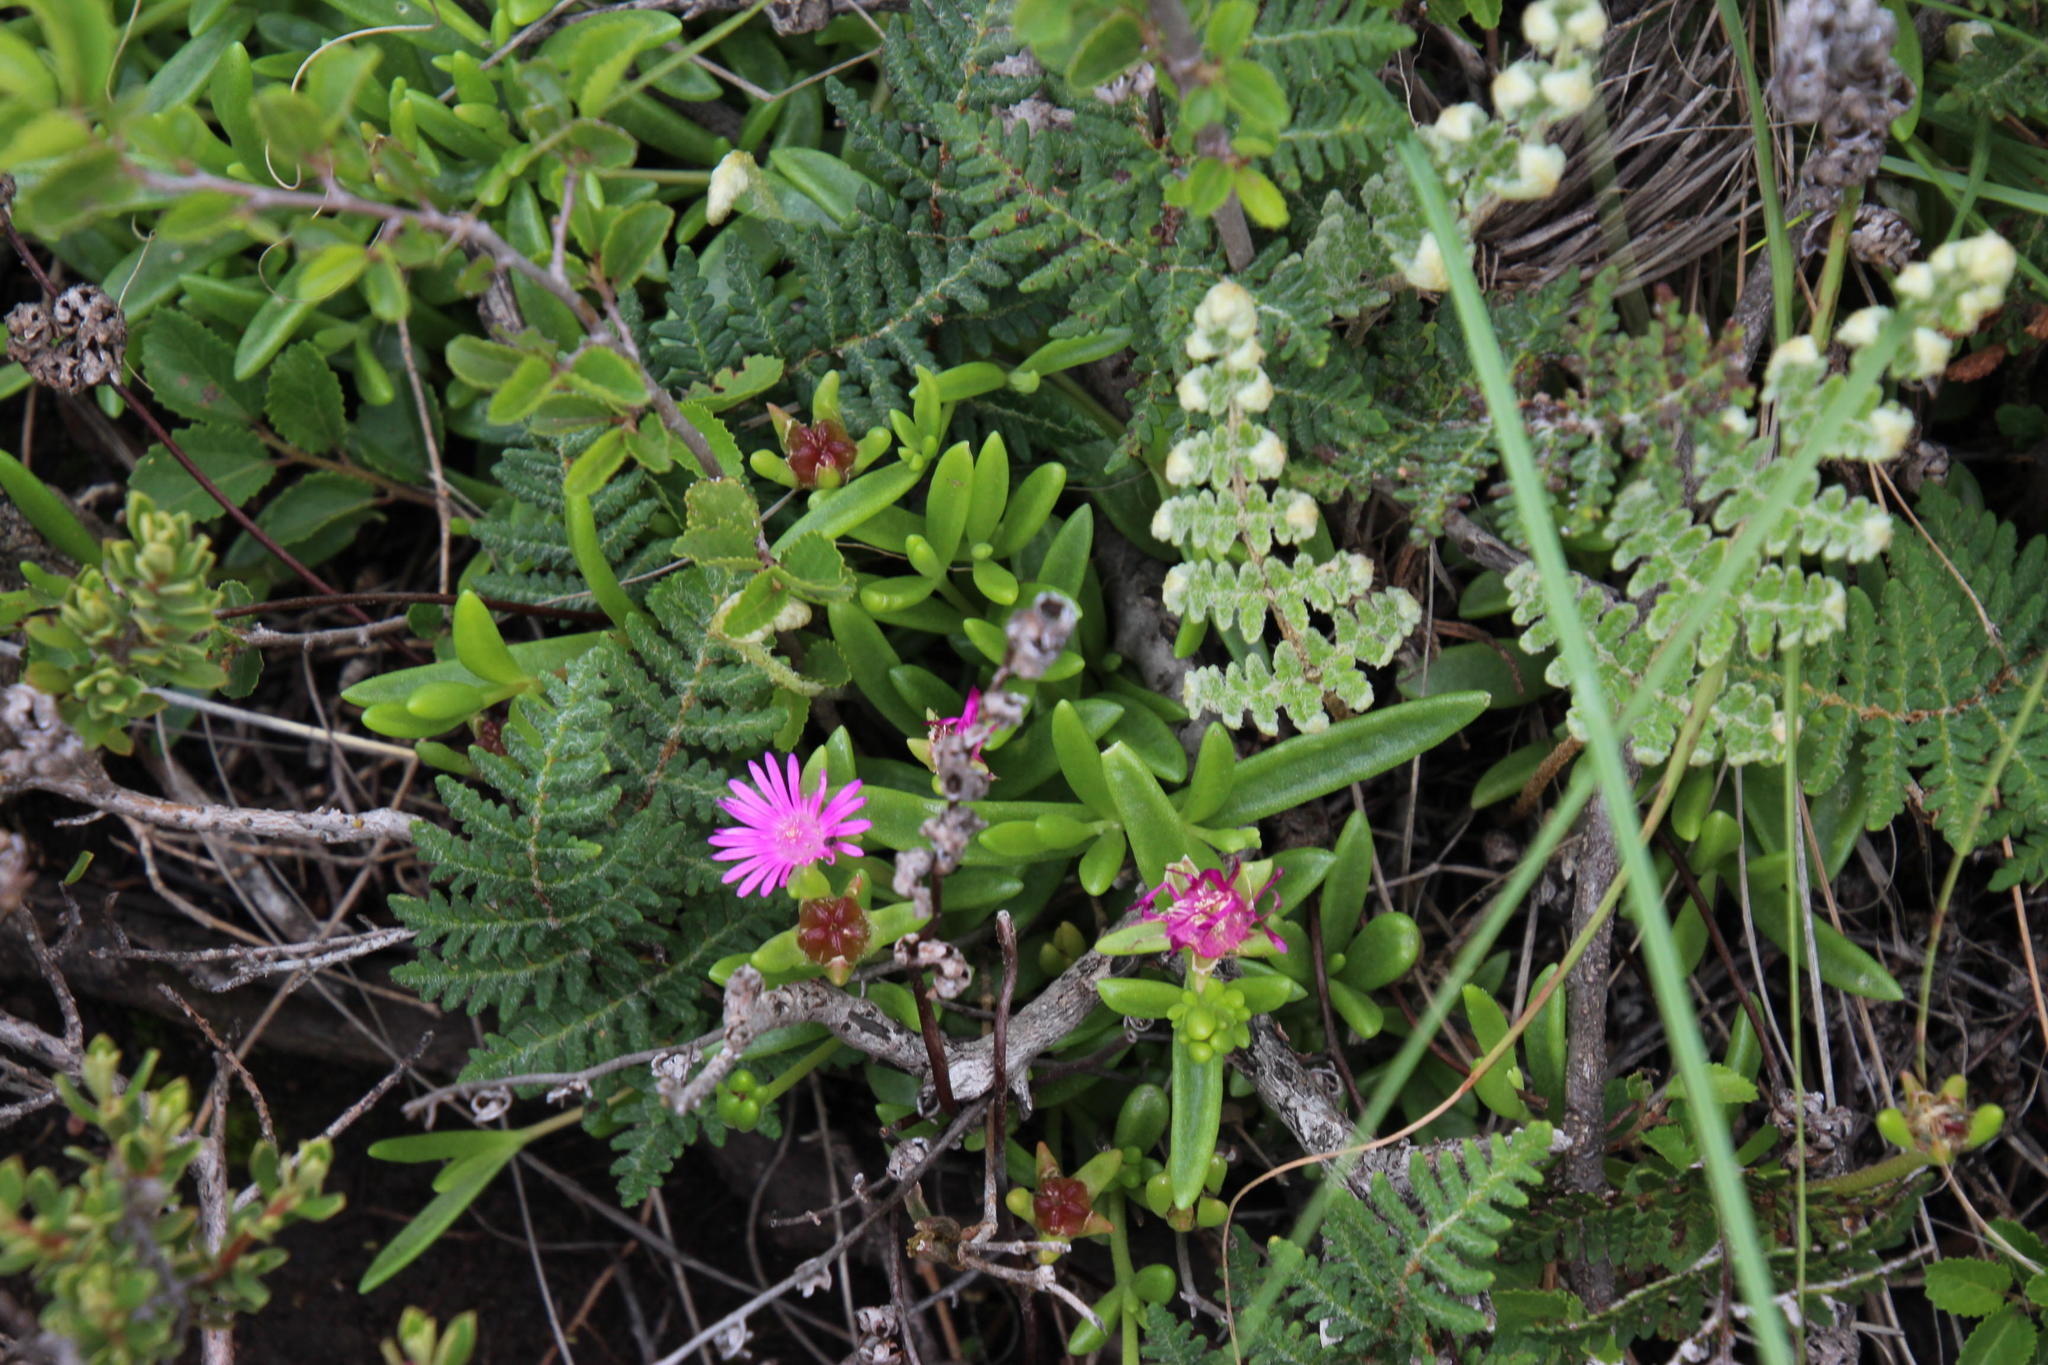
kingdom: Plantae
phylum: Tracheophyta
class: Magnoliopsida
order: Caryophyllales
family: Aizoaceae
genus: Delosperma
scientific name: Delosperma lavisiae
